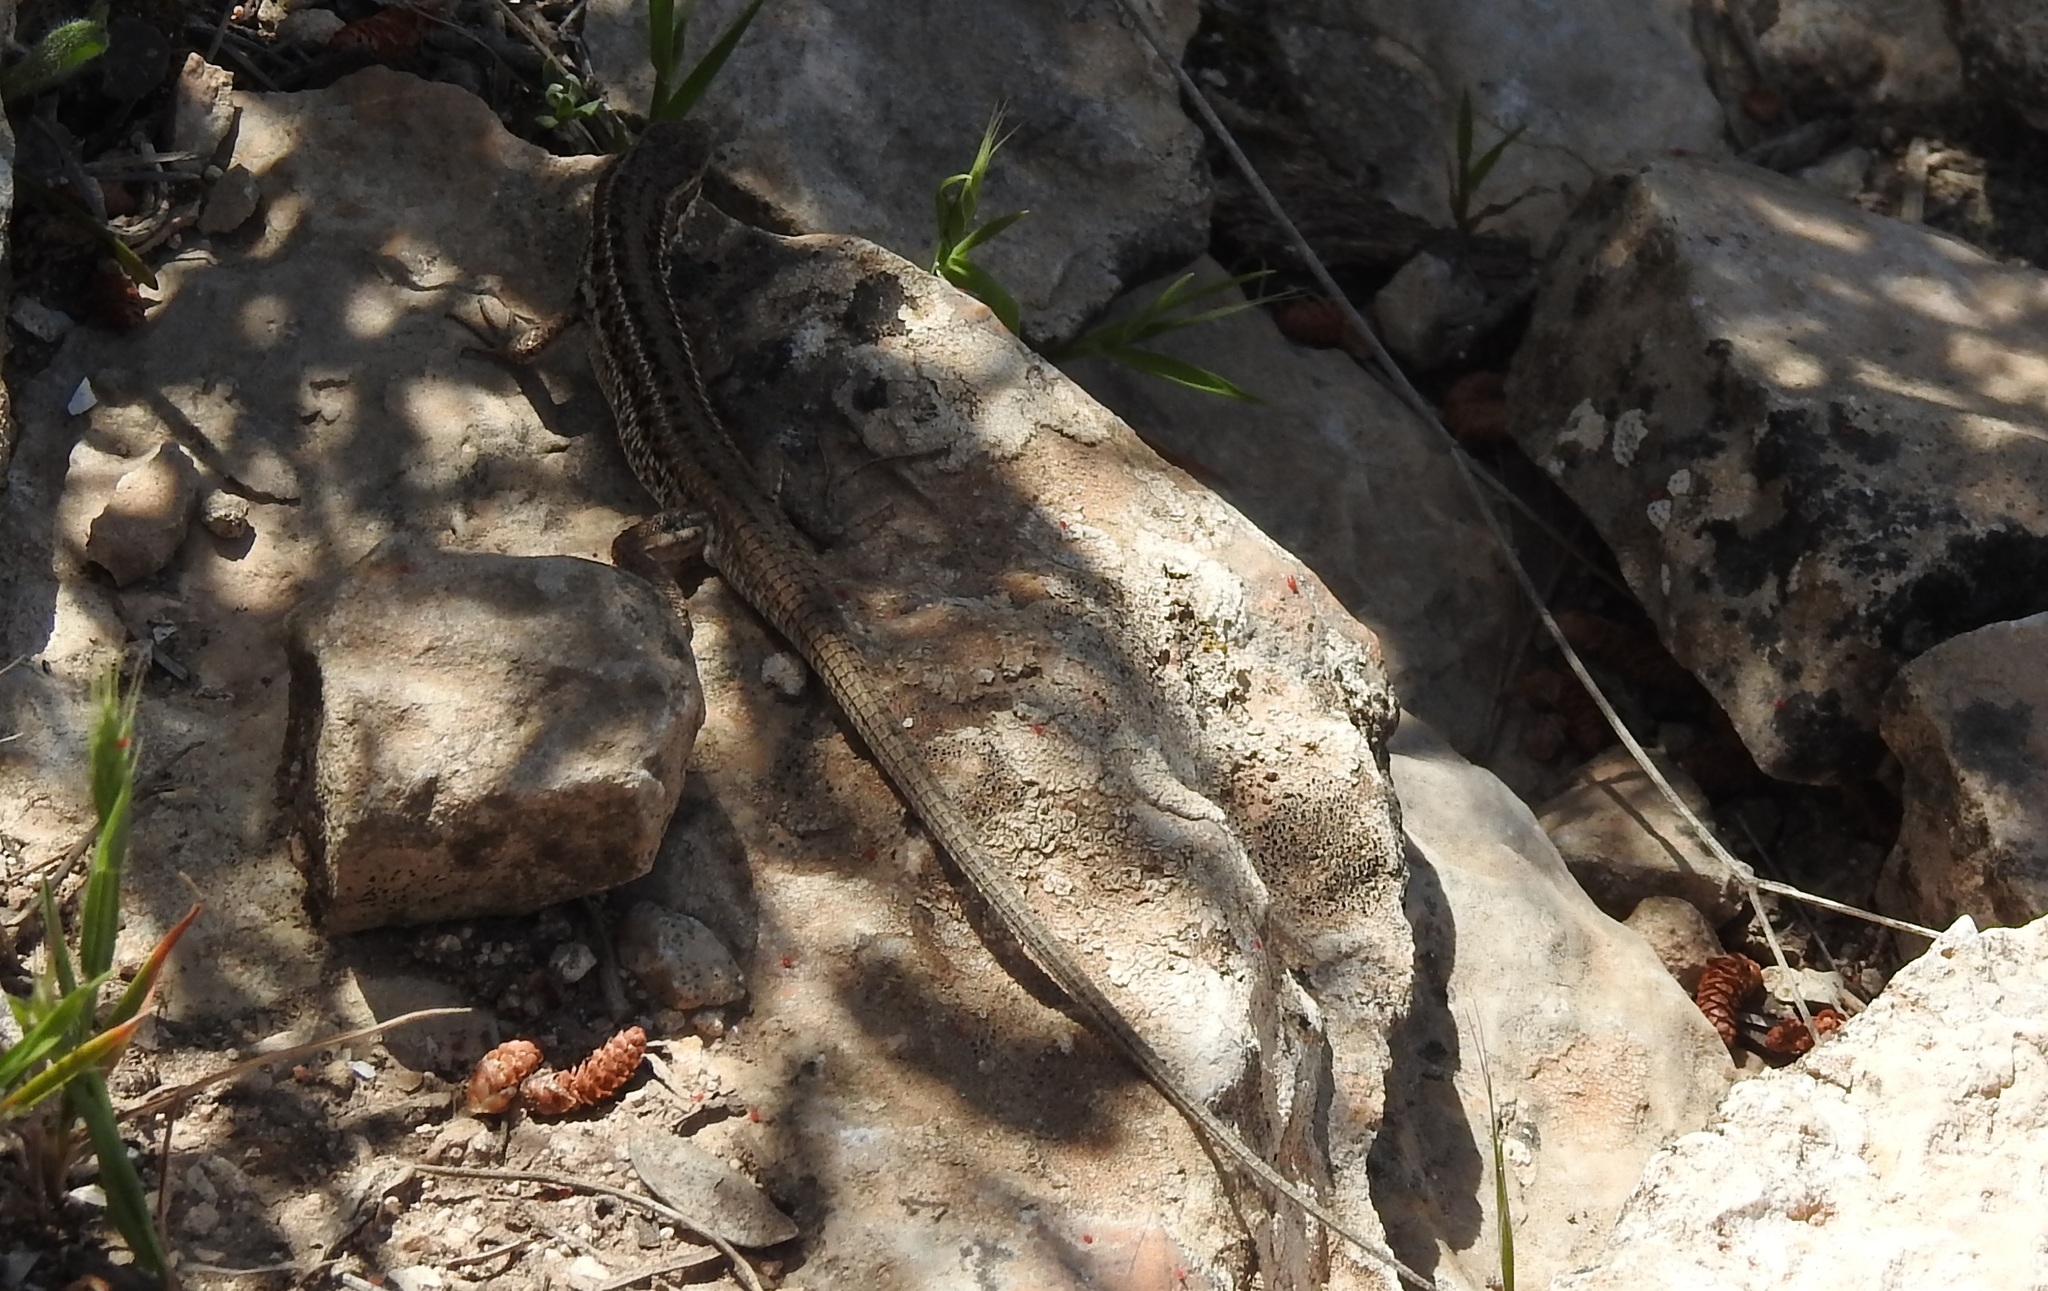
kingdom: Animalia
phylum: Chordata
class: Squamata
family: Lacertidae
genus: Ophisops
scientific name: Ophisops occidentalis
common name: Western snake-eyed lizard
